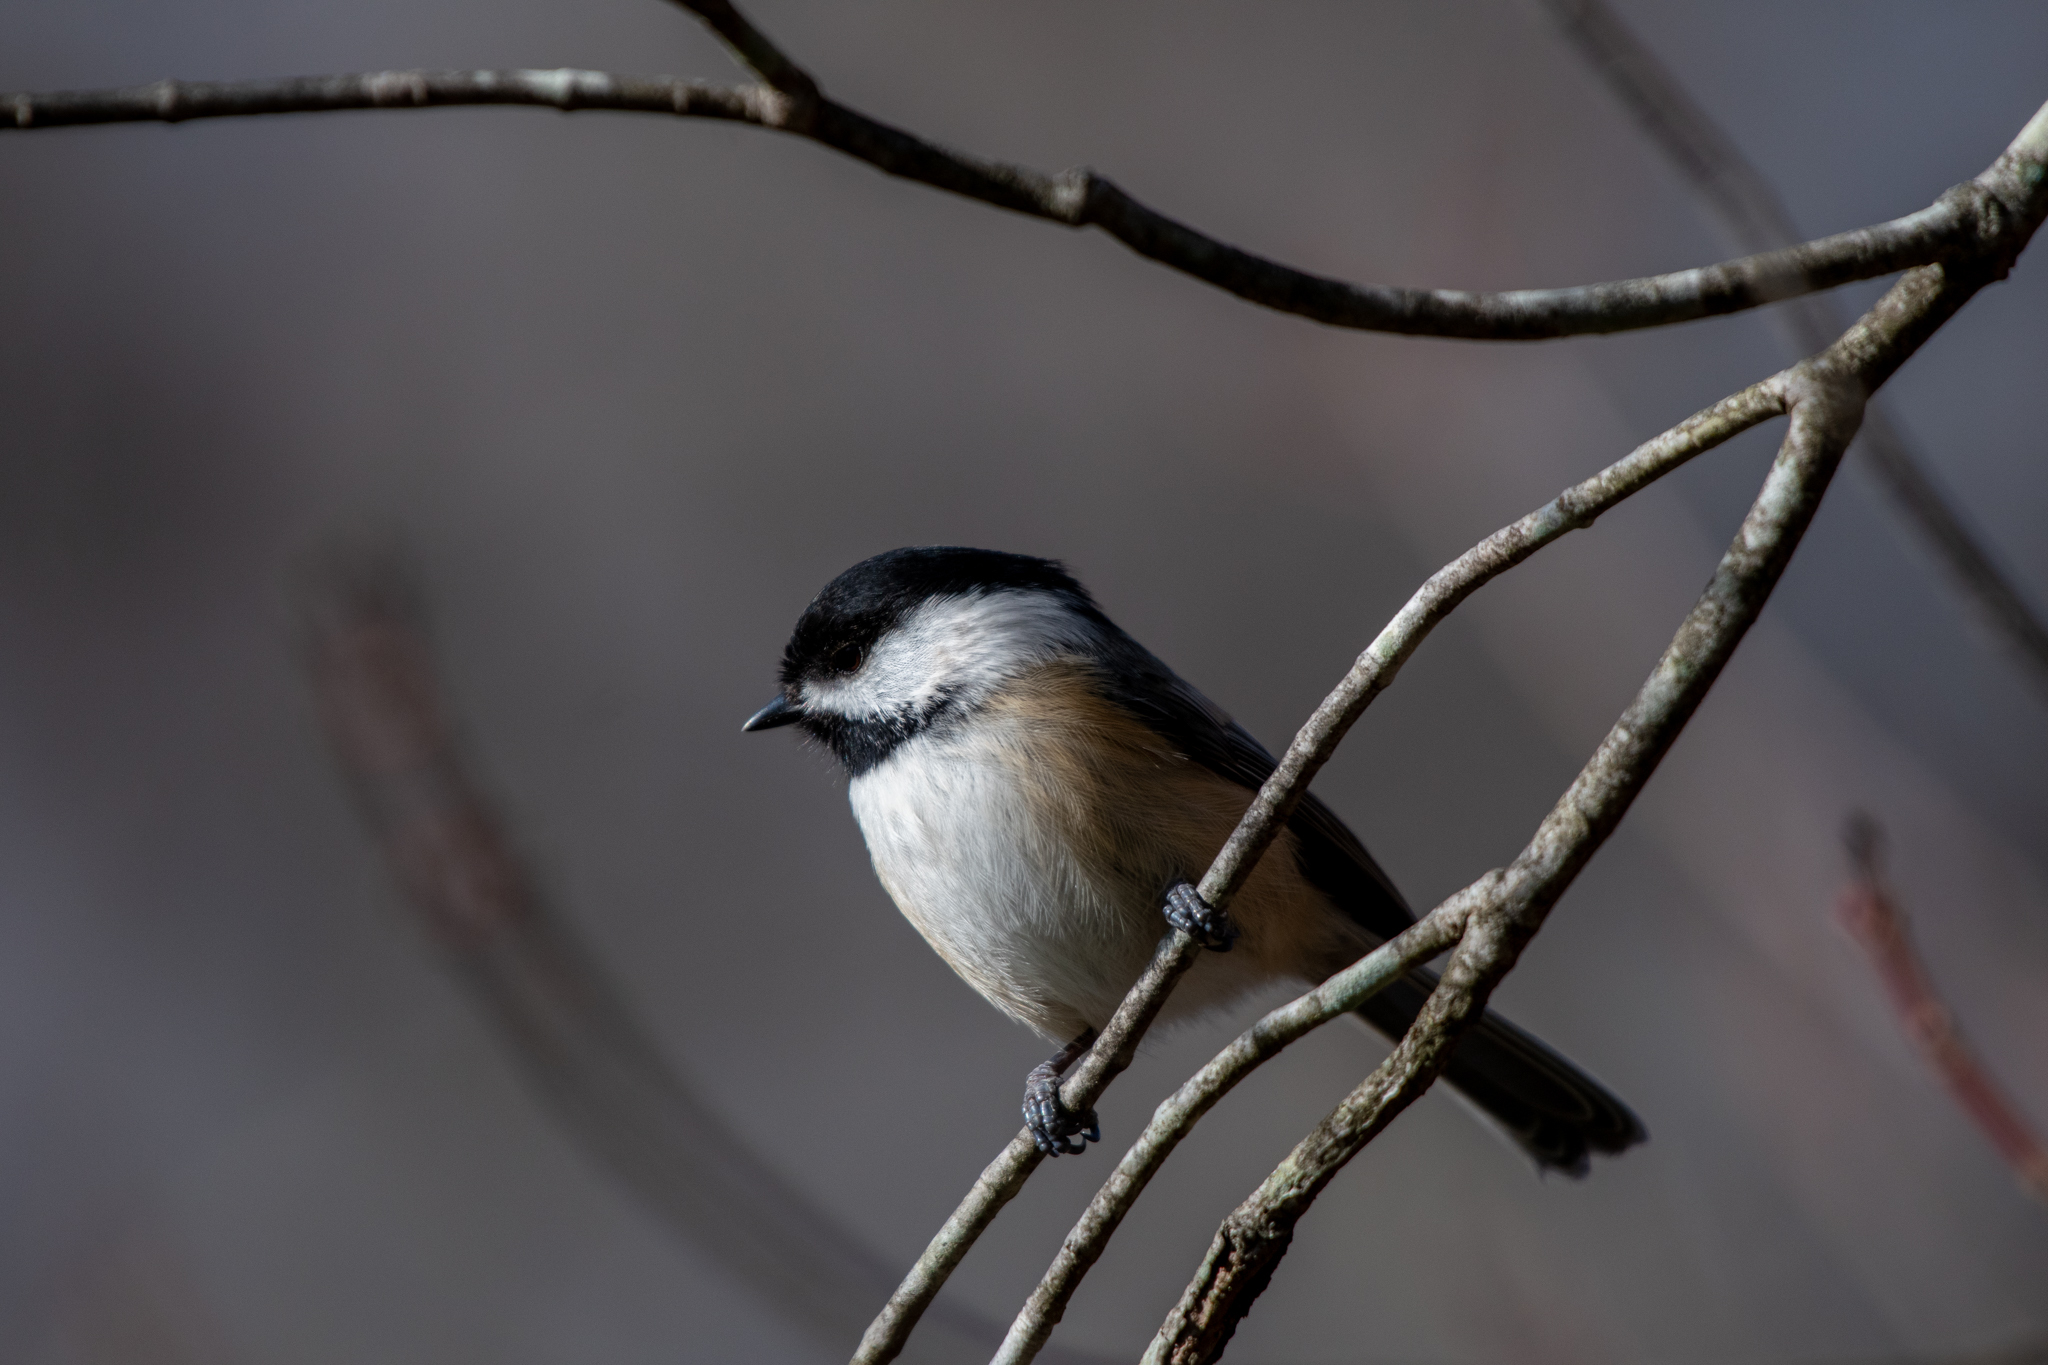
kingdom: Animalia
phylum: Chordata
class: Aves
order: Passeriformes
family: Paridae
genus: Poecile
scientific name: Poecile atricapillus
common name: Black-capped chickadee
